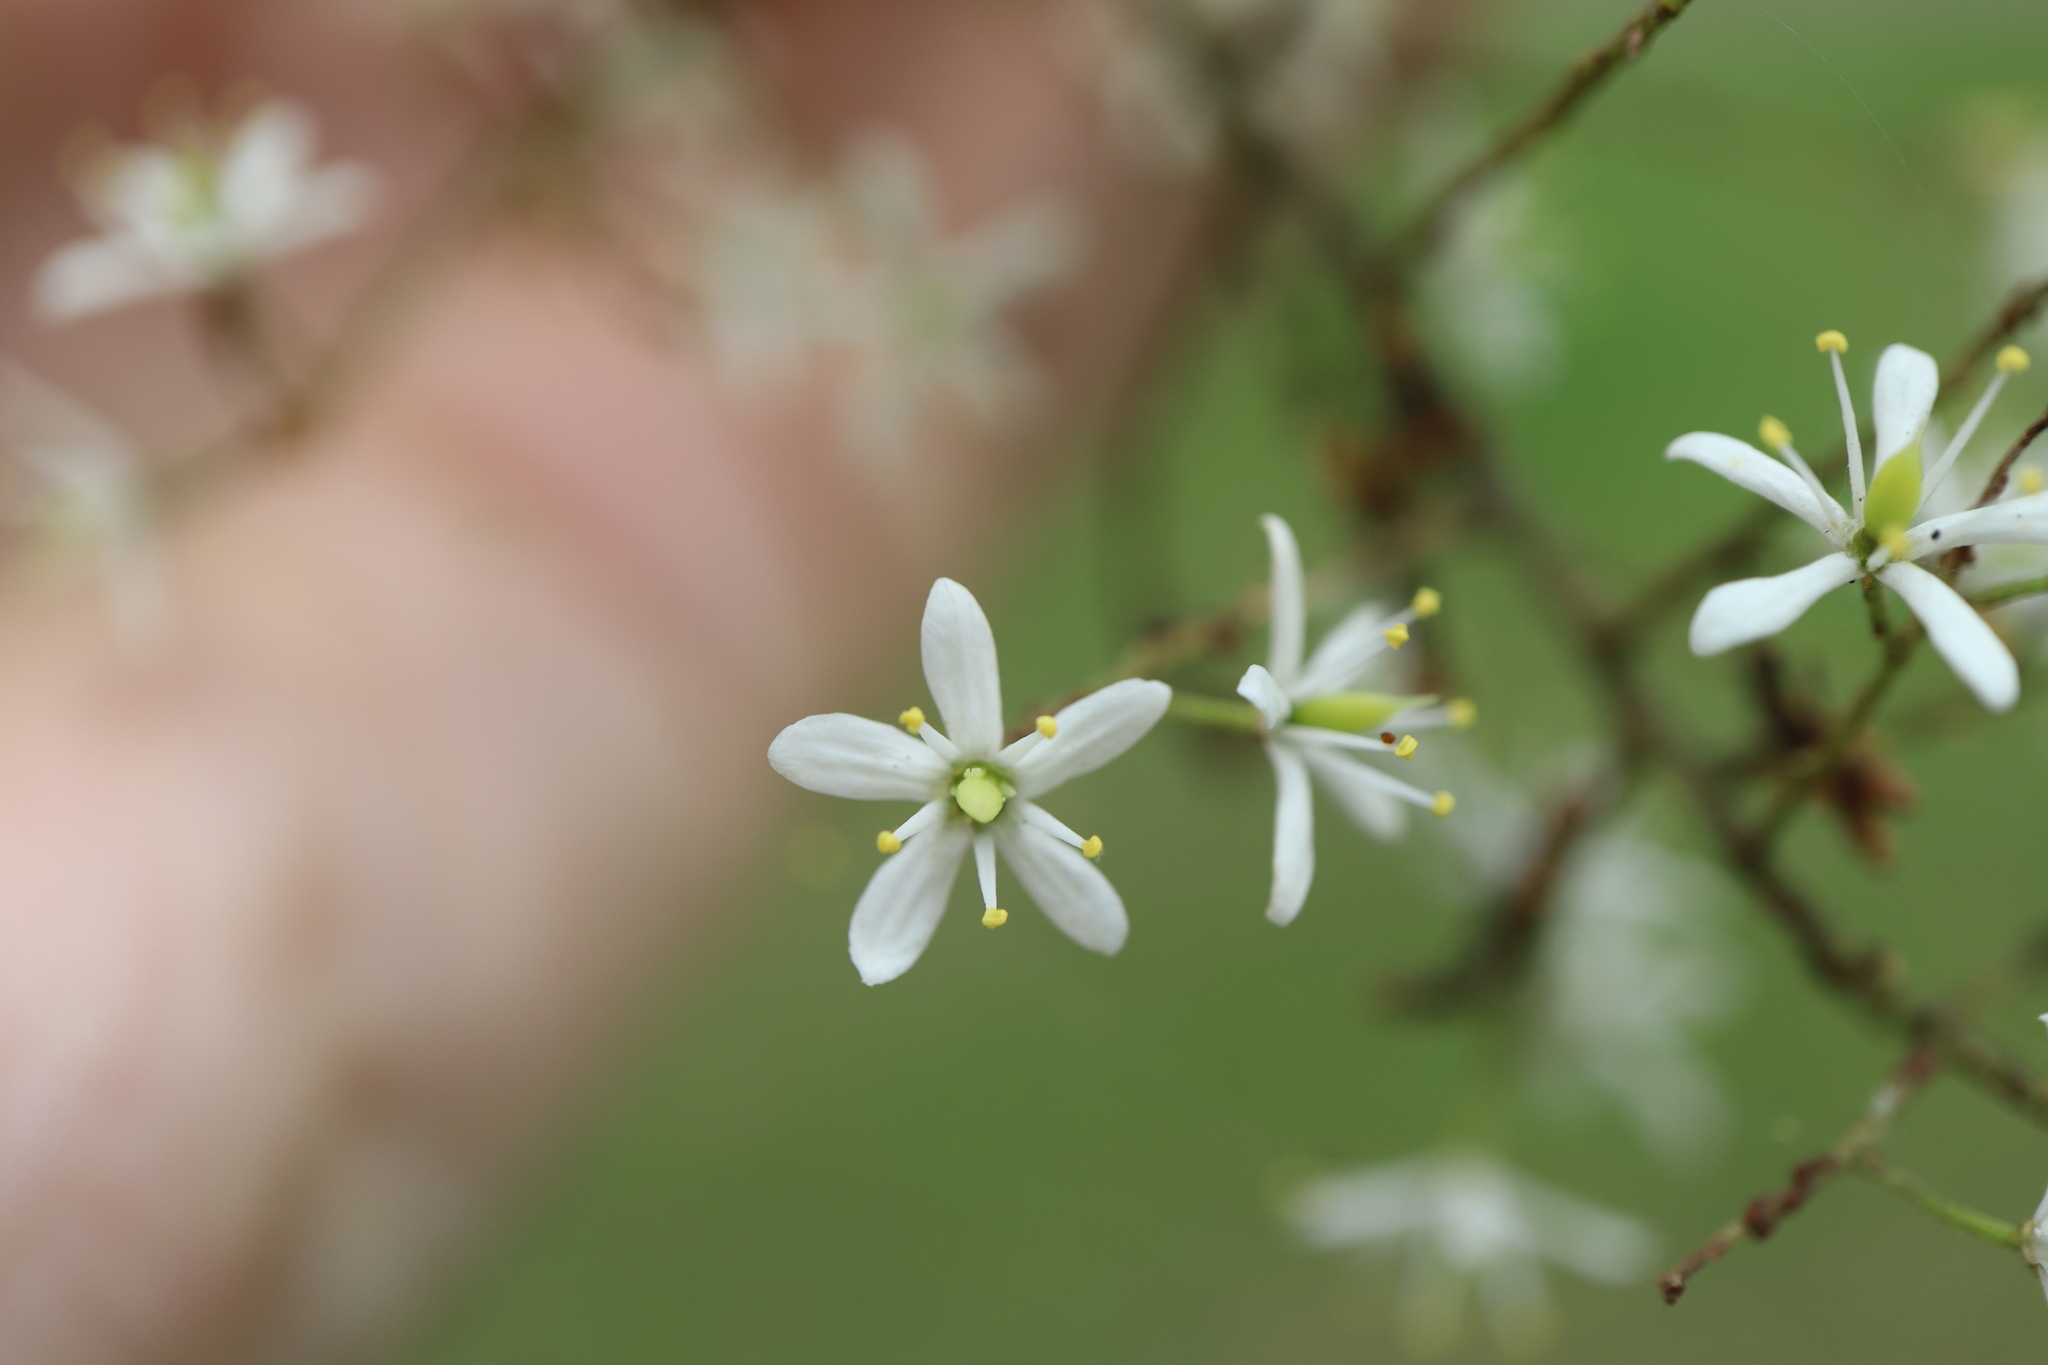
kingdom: Plantae
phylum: Tracheophyta
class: Magnoliopsida
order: Apiales
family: Pittosporaceae
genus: Bursaria
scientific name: Bursaria spinosa
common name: Australian blackthorn
